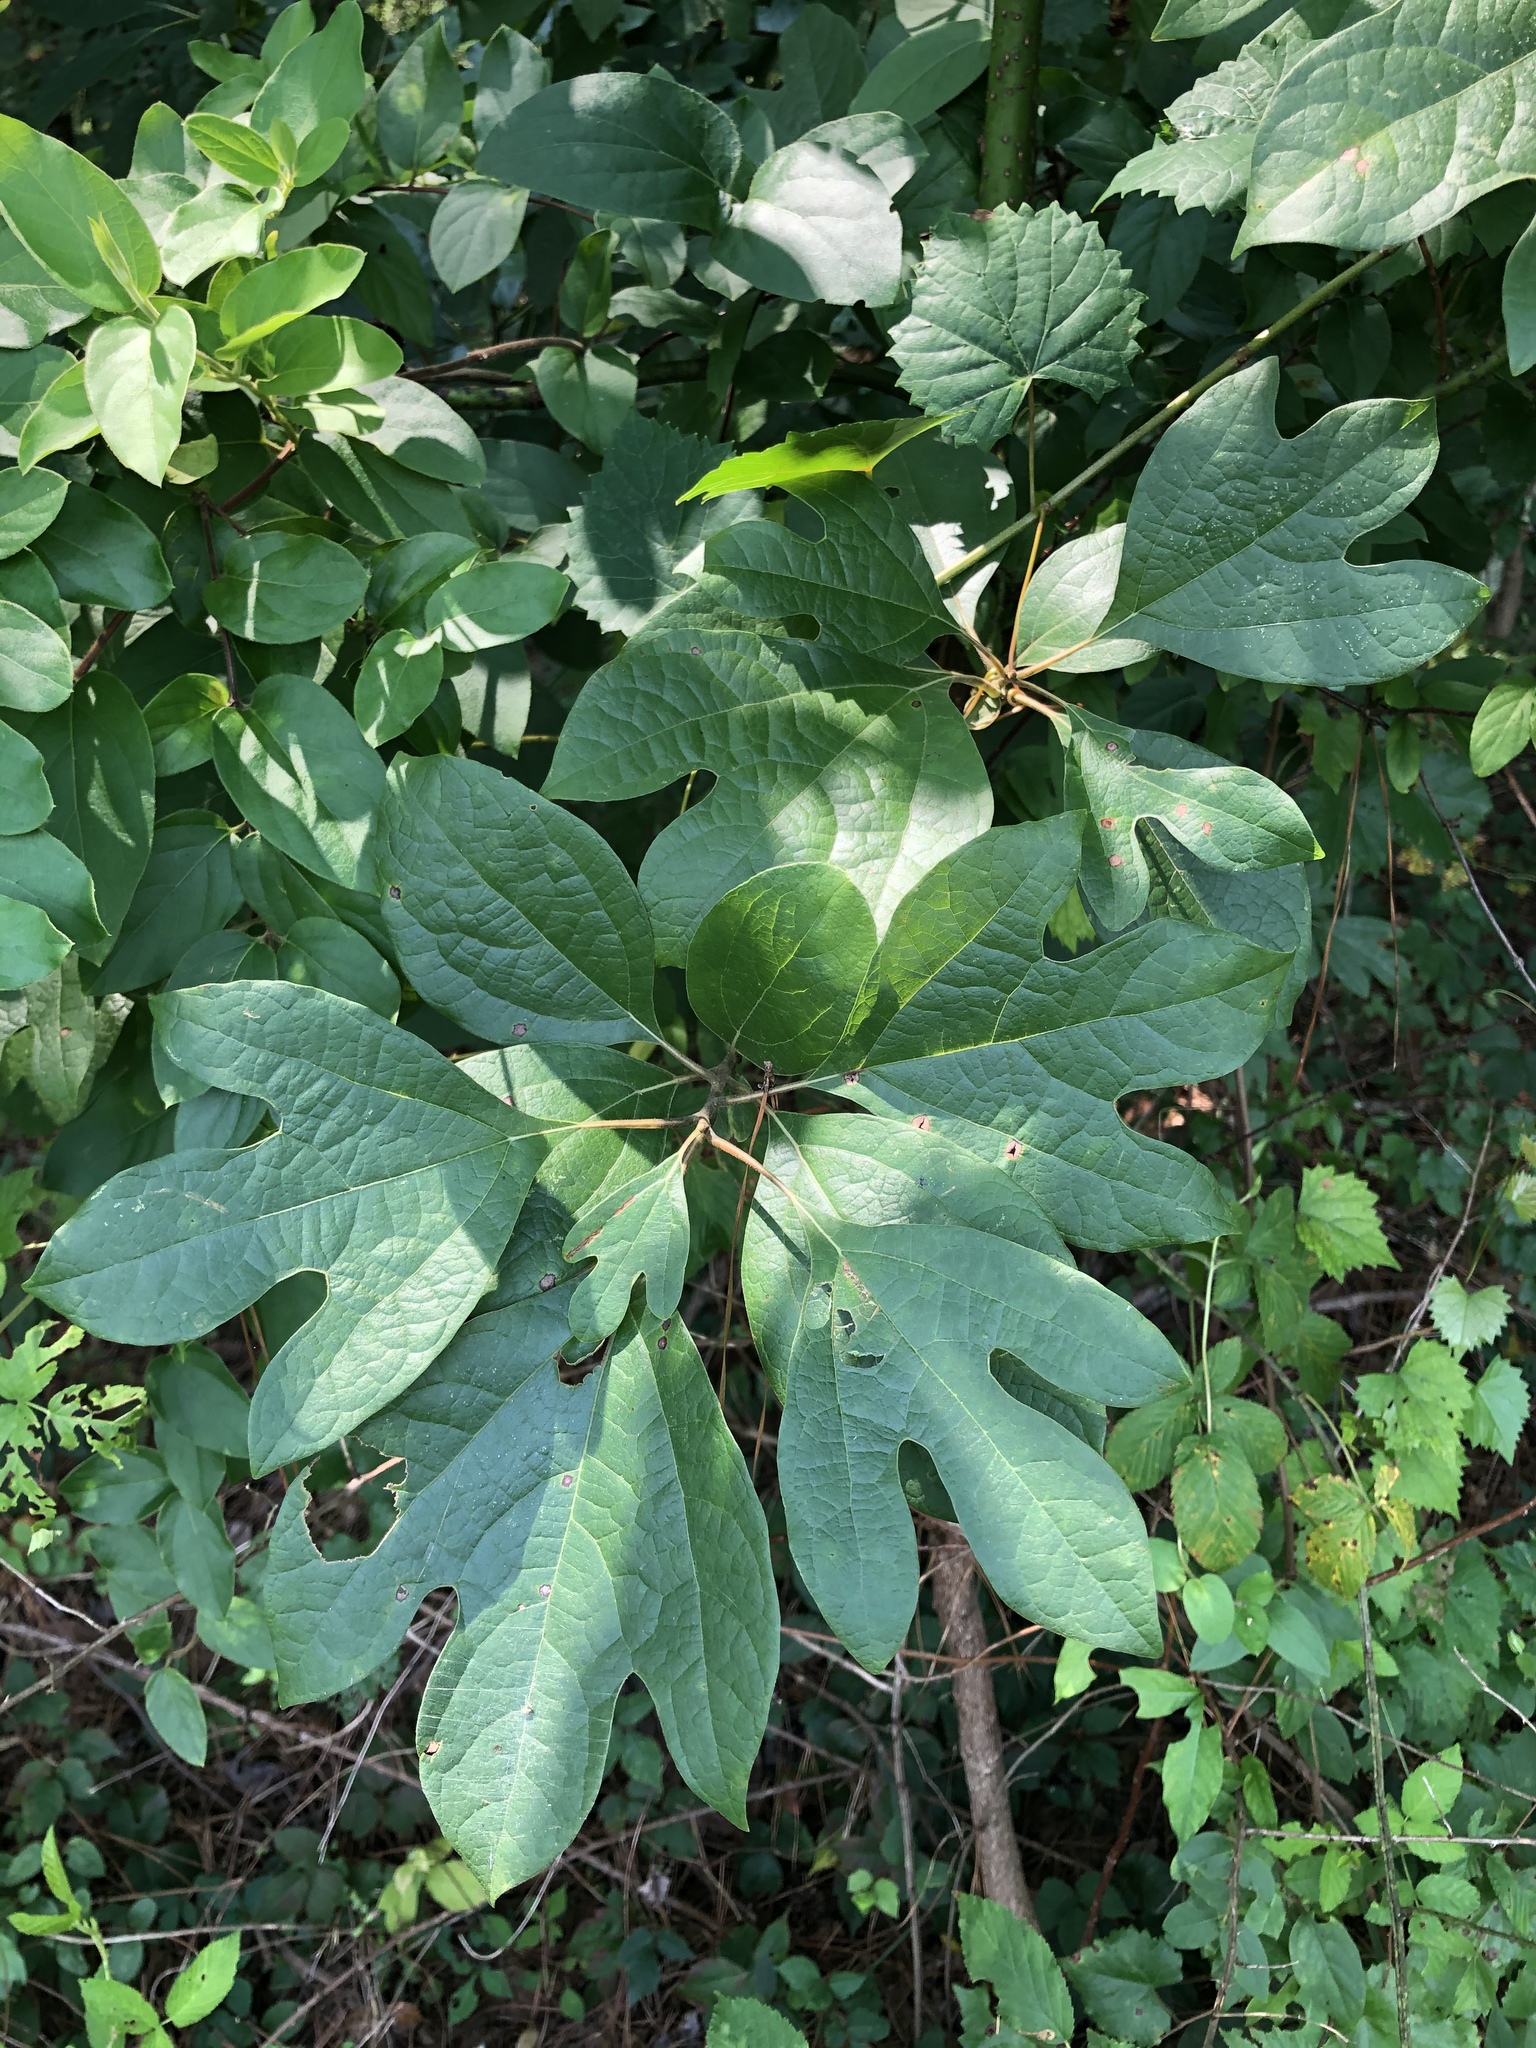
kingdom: Plantae
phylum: Tracheophyta
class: Magnoliopsida
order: Laurales
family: Lauraceae
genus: Sassafras
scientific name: Sassafras albidum
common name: Sassafras
